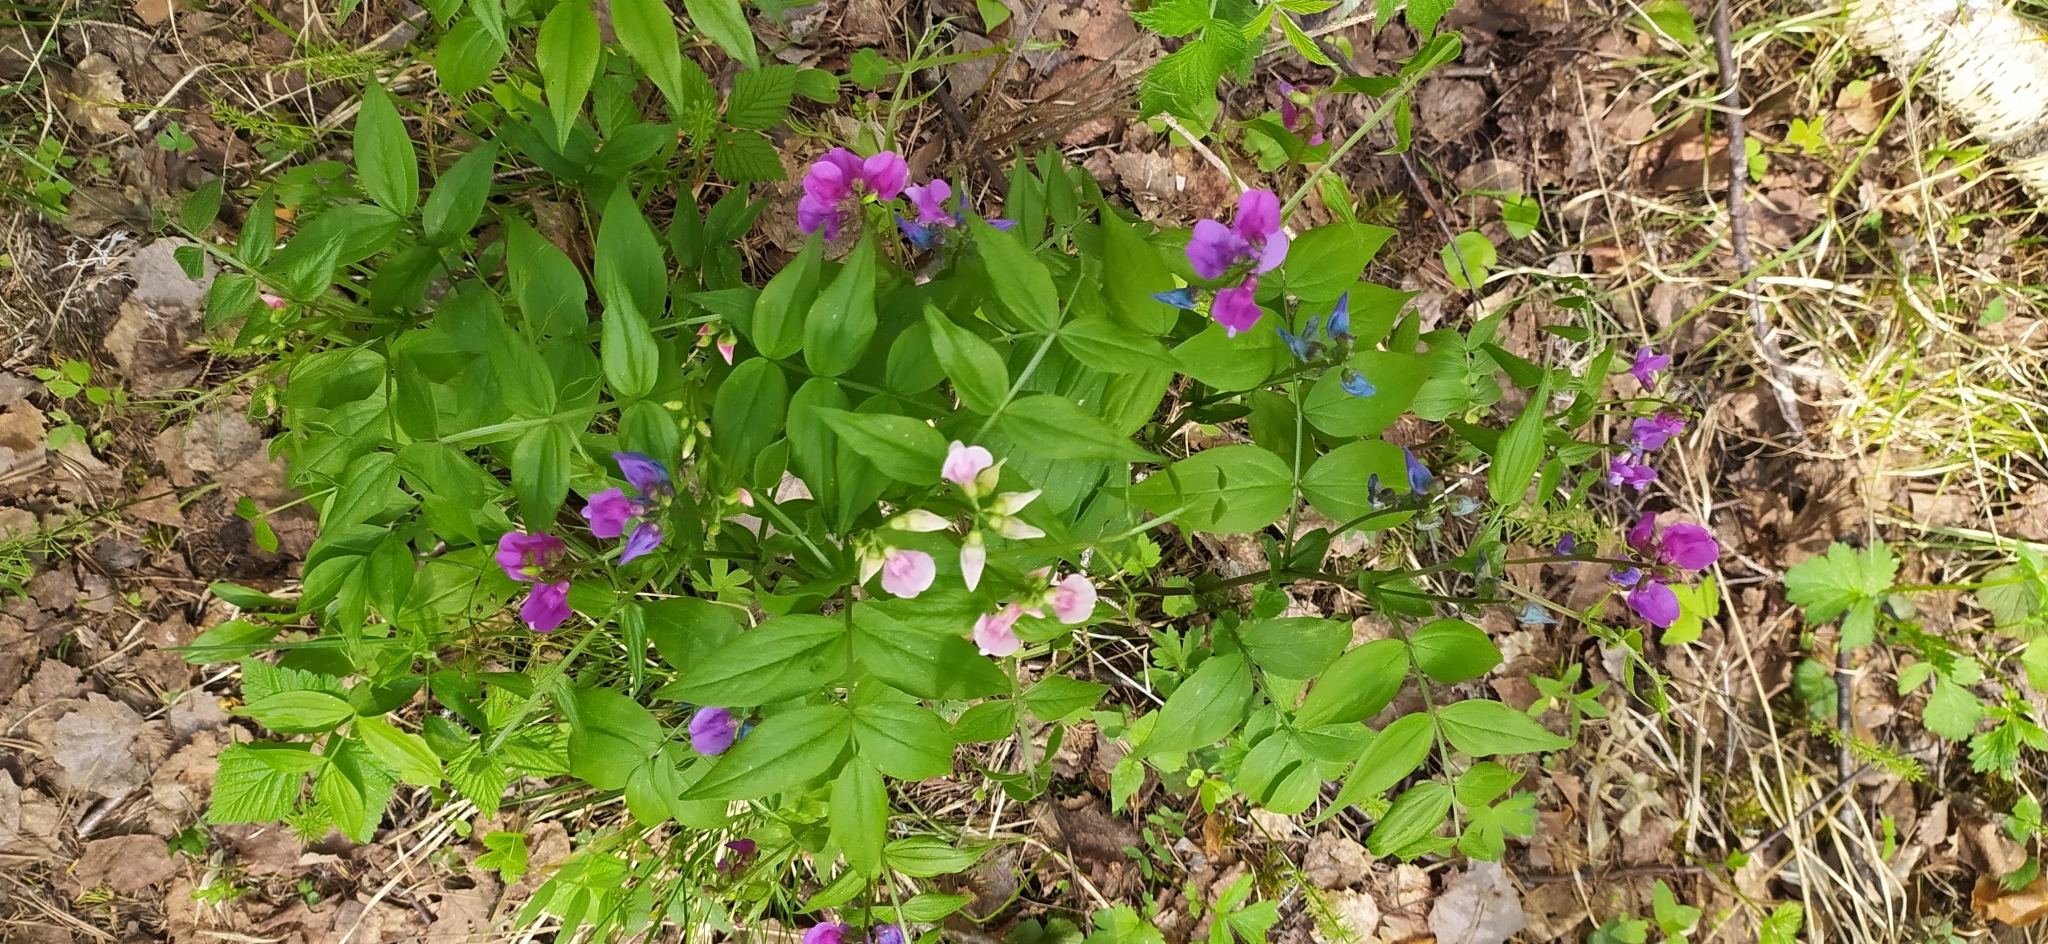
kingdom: Plantae
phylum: Tracheophyta
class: Magnoliopsida
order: Fabales
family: Fabaceae
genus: Lathyrus
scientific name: Lathyrus vernus
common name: Spring pea
